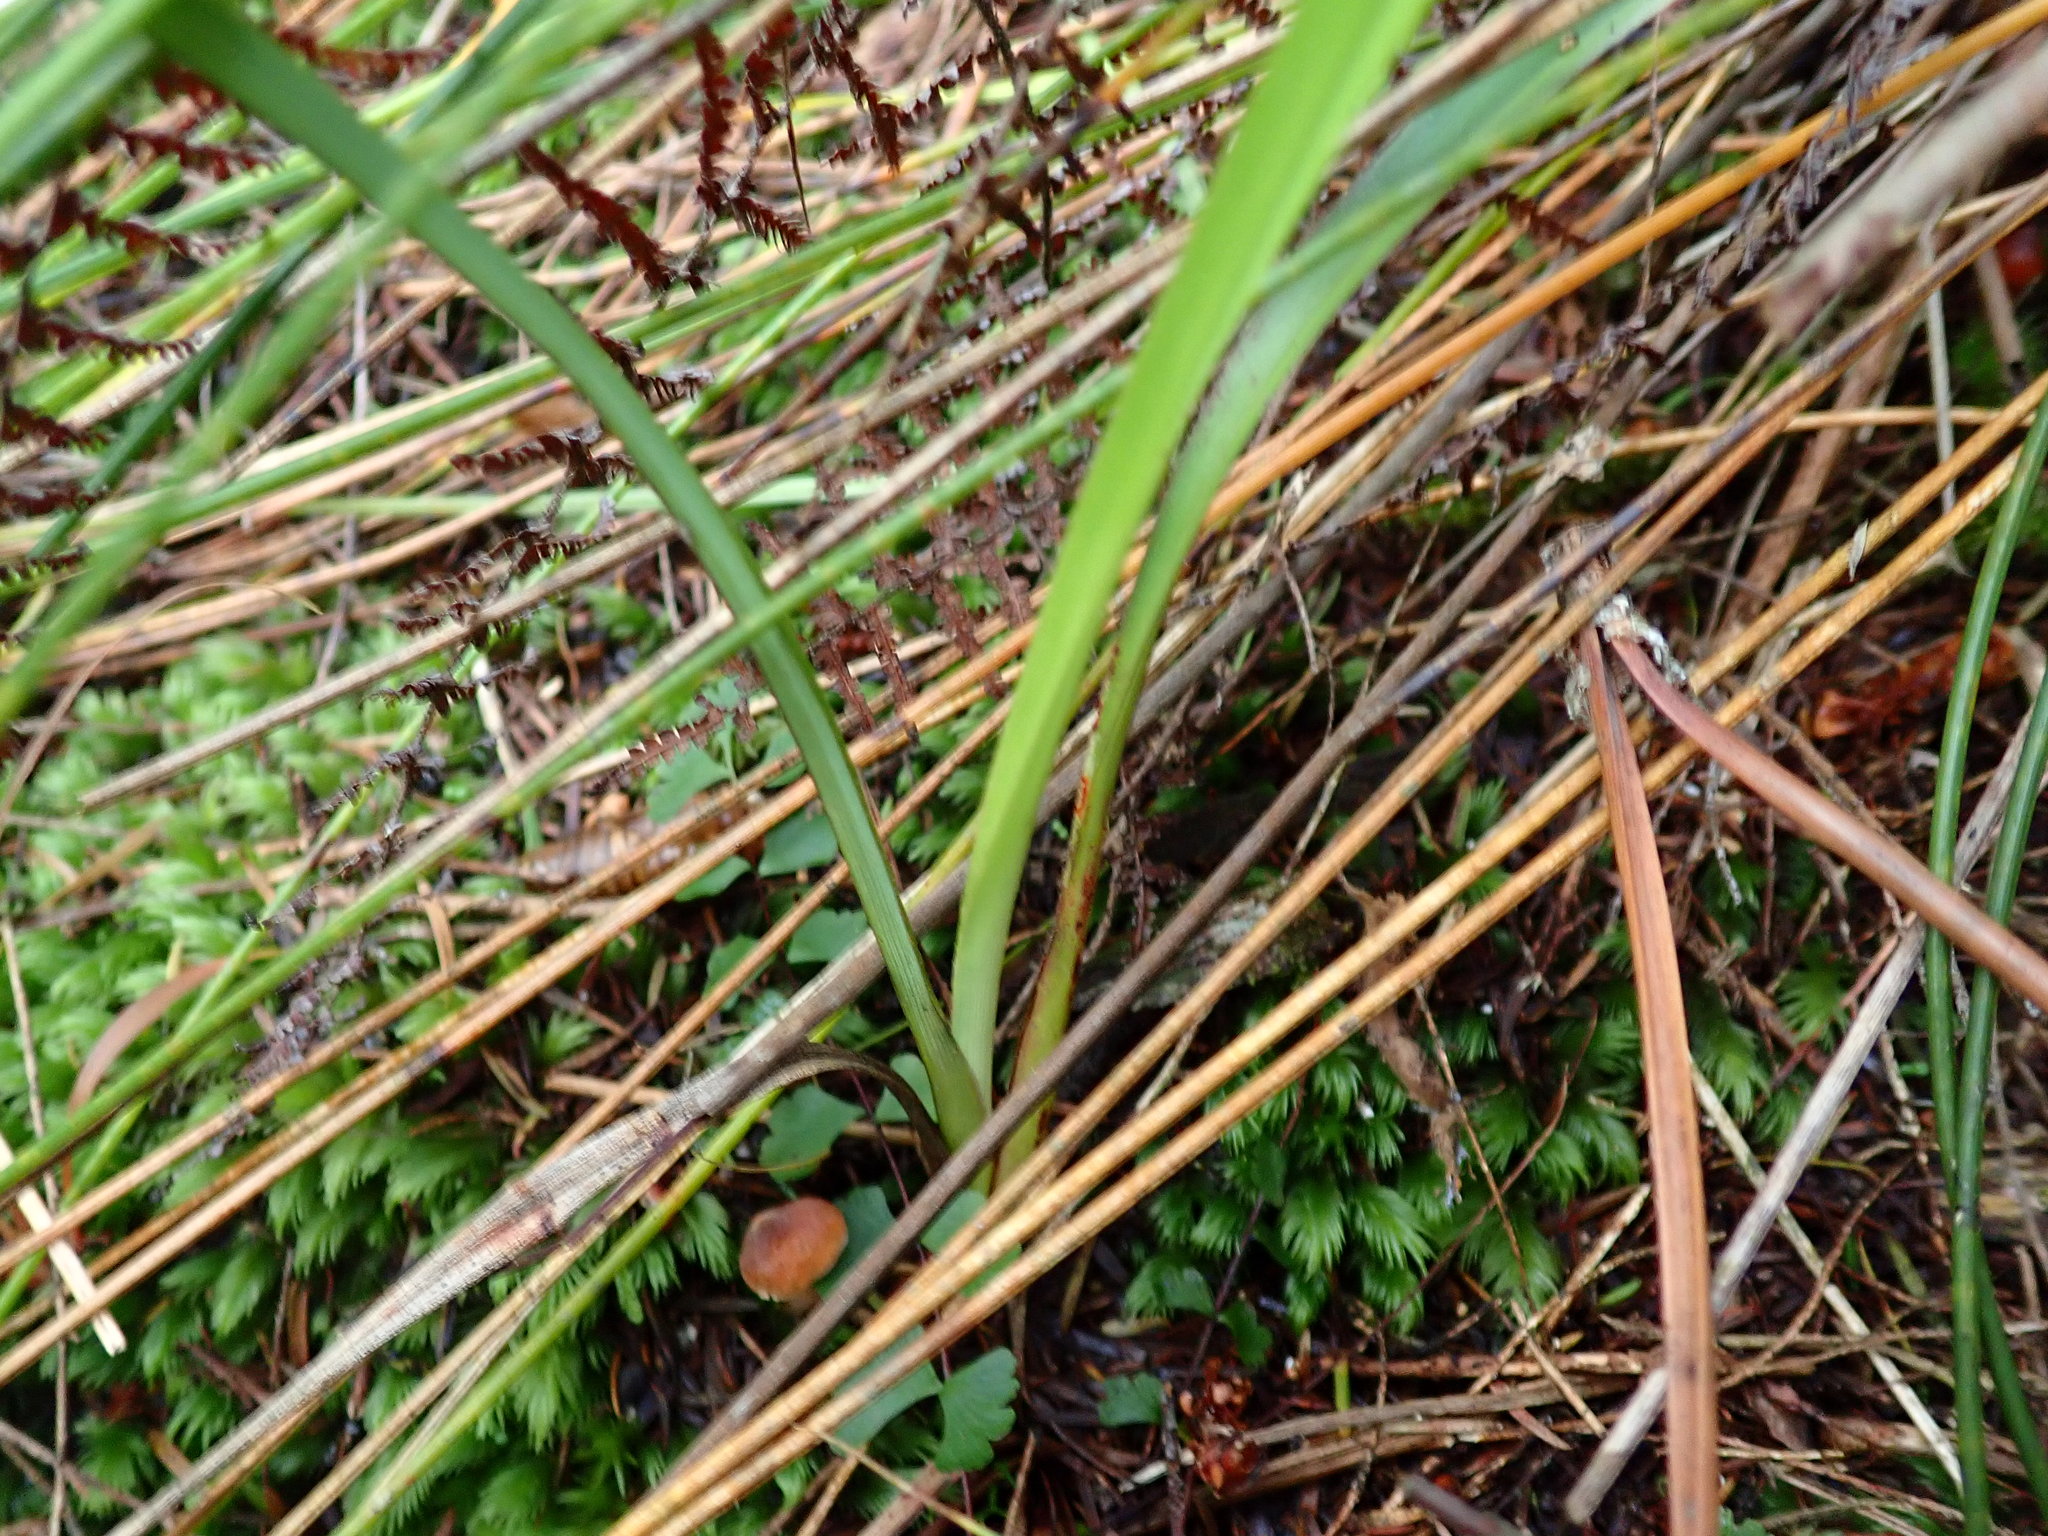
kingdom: Plantae
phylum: Tracheophyta
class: Polypodiopsida
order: Polypodiales
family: Lindsaeaceae
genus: Lindsaea
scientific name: Lindsaea linearis
